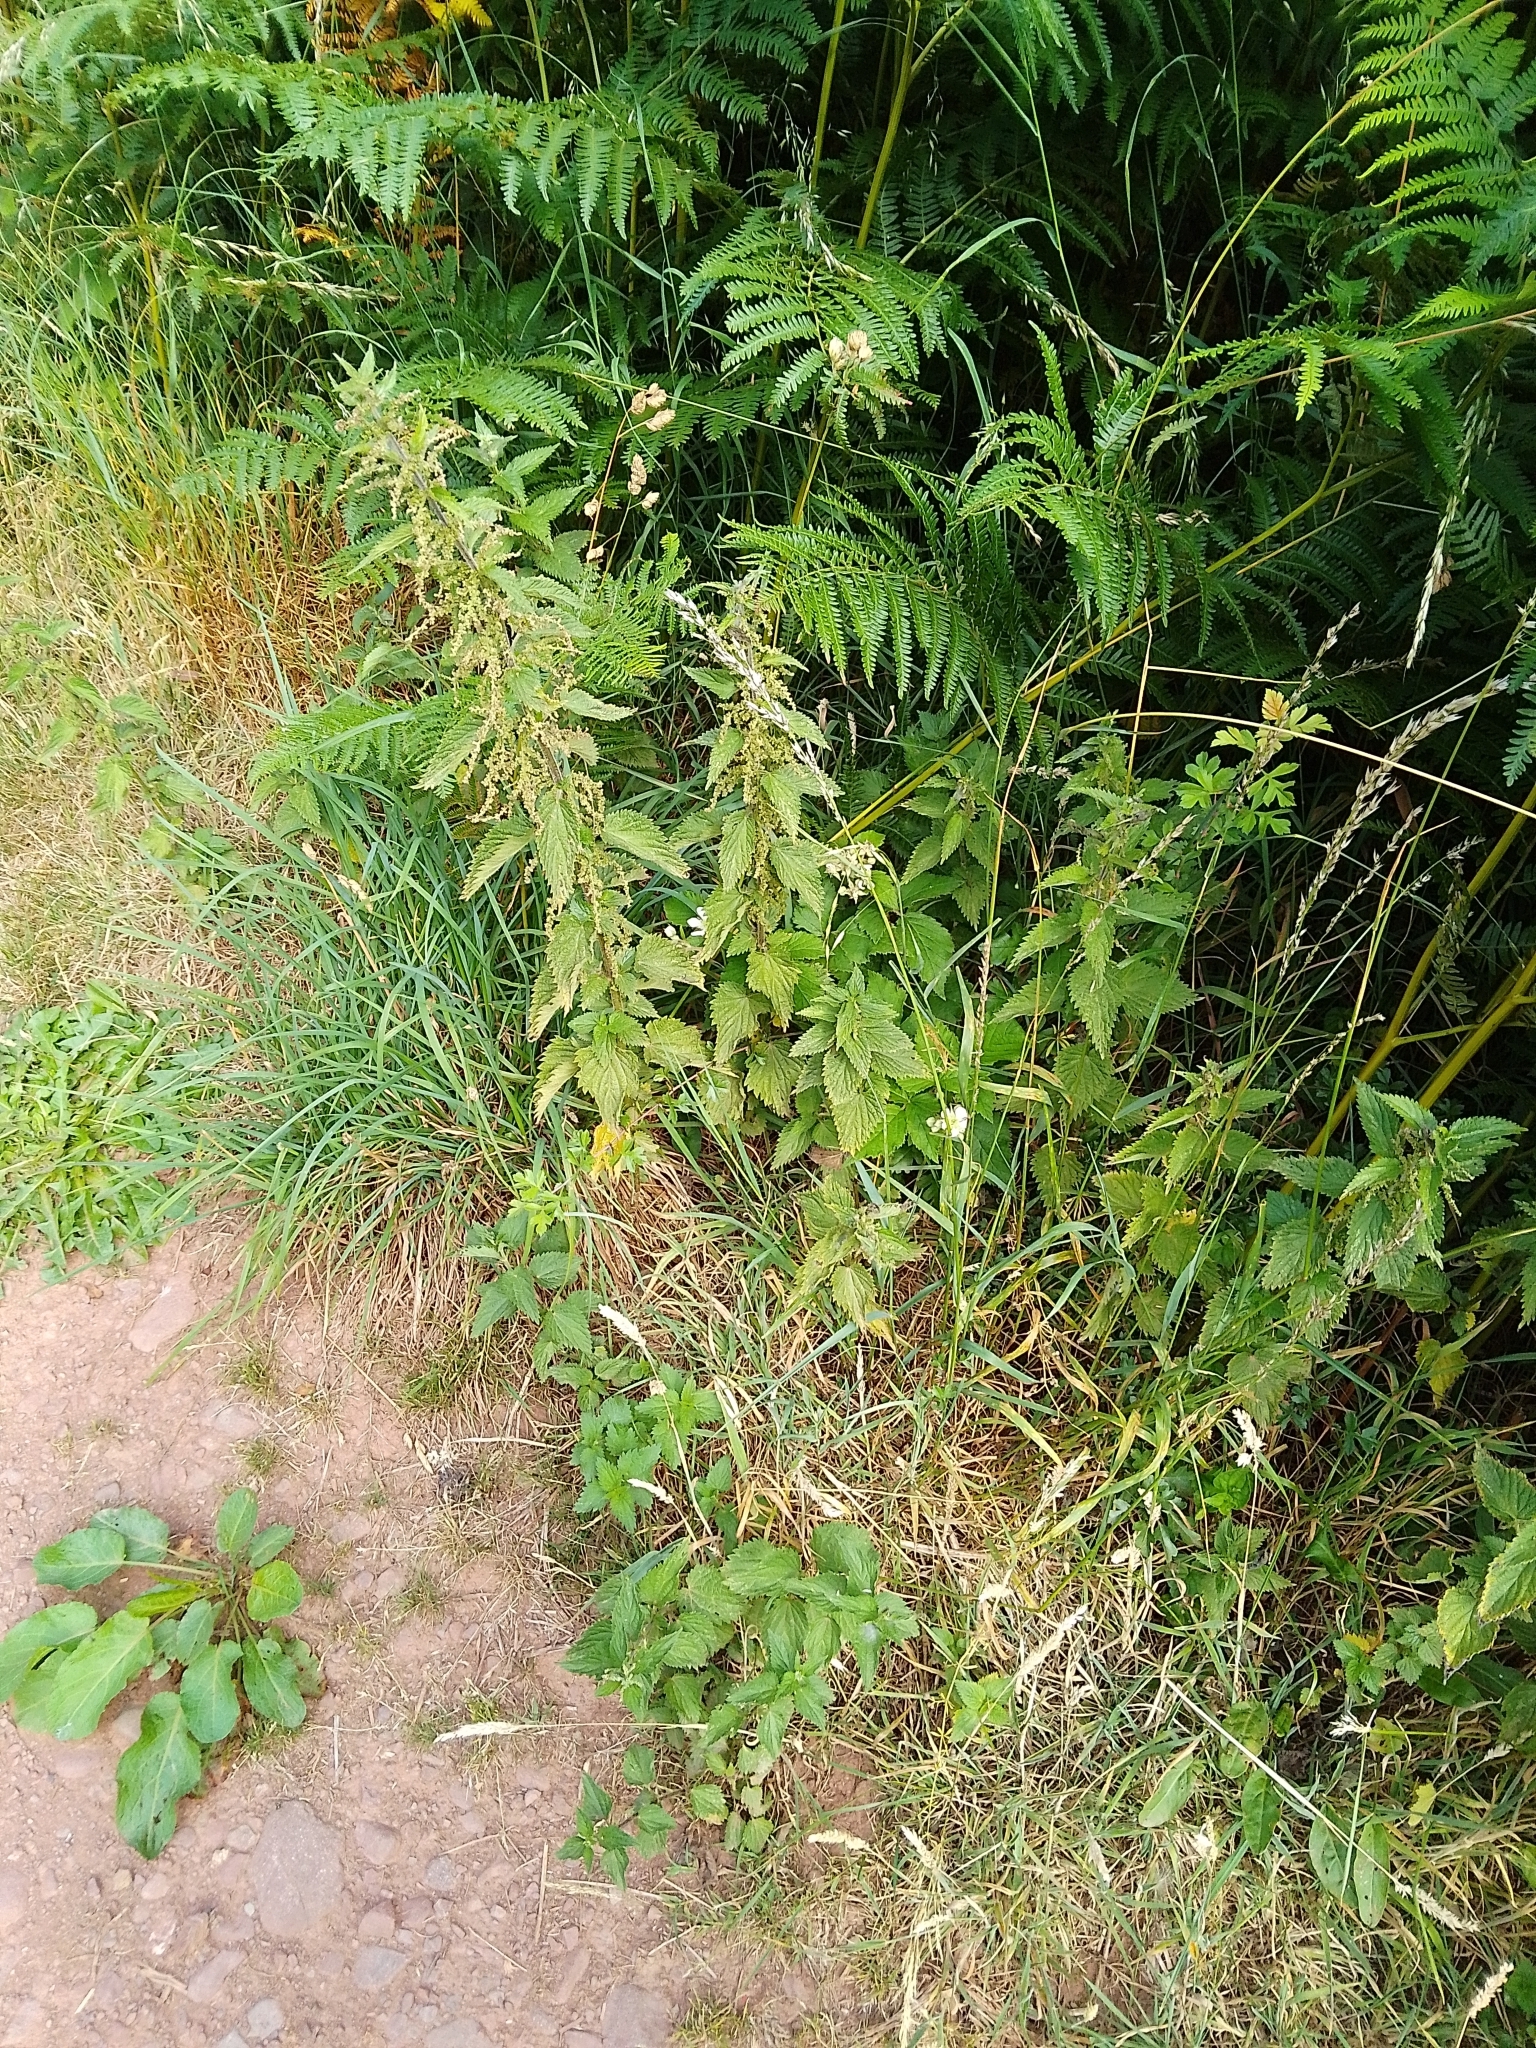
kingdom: Plantae
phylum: Tracheophyta
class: Magnoliopsida
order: Rosales
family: Urticaceae
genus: Urtica
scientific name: Urtica dioica
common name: Common nettle
